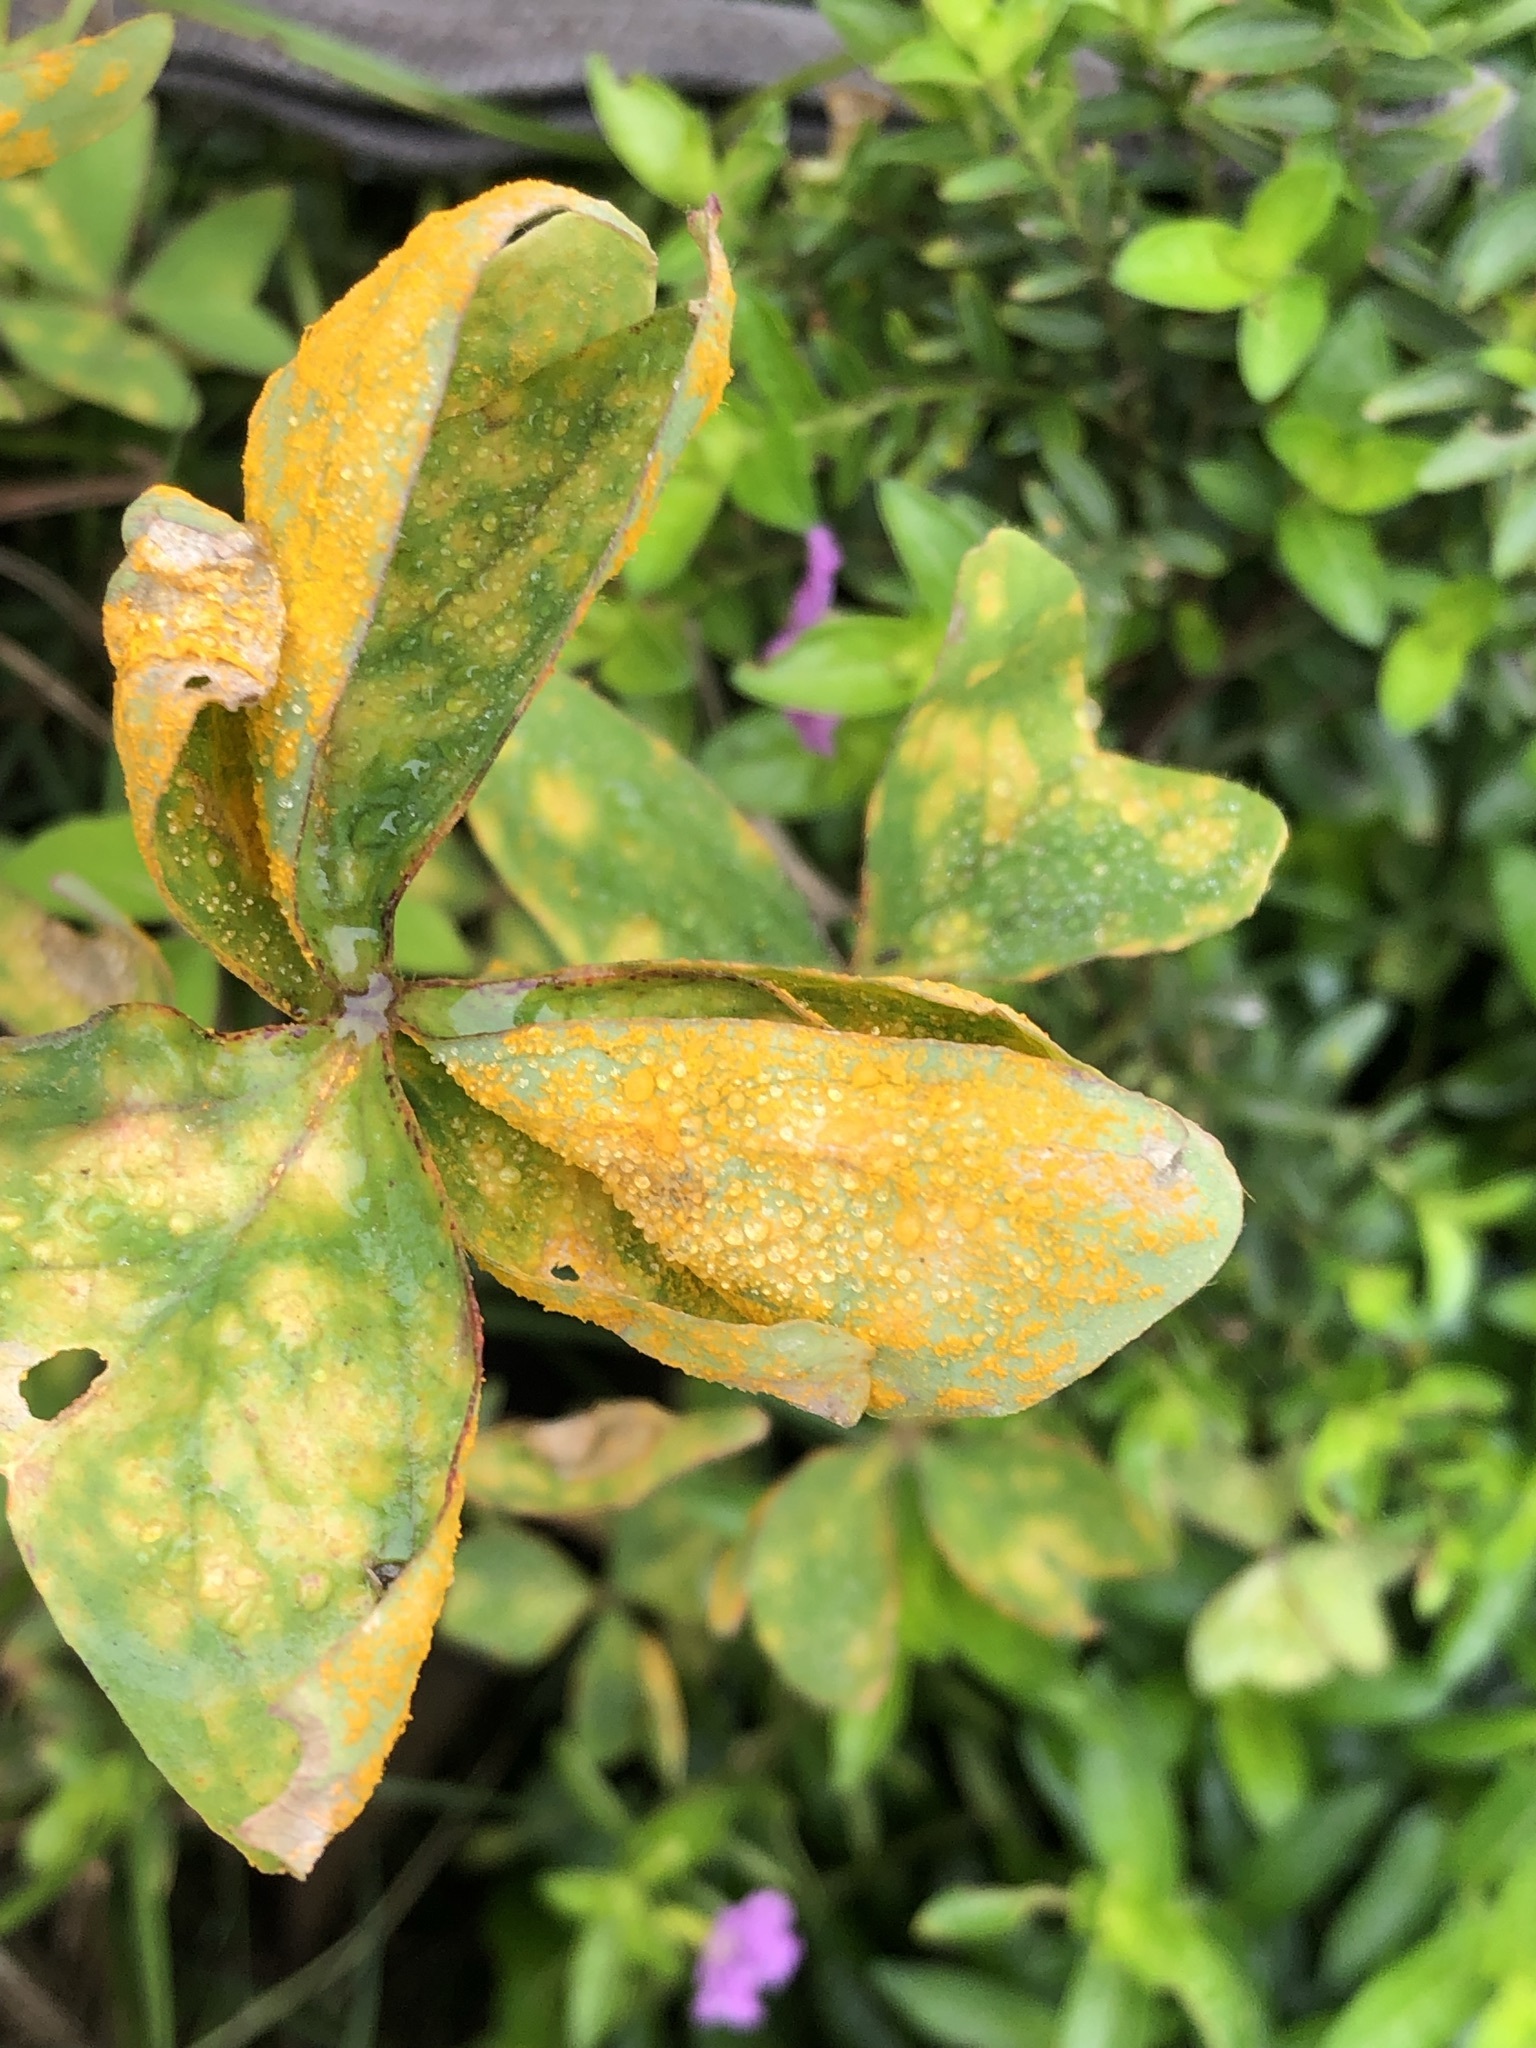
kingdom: Fungi
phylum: Basidiomycota
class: Pucciniomycetes
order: Pucciniales
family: Pucciniaceae
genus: Puccinia
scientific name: Puccinia oxalidis
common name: Oxalis rust
